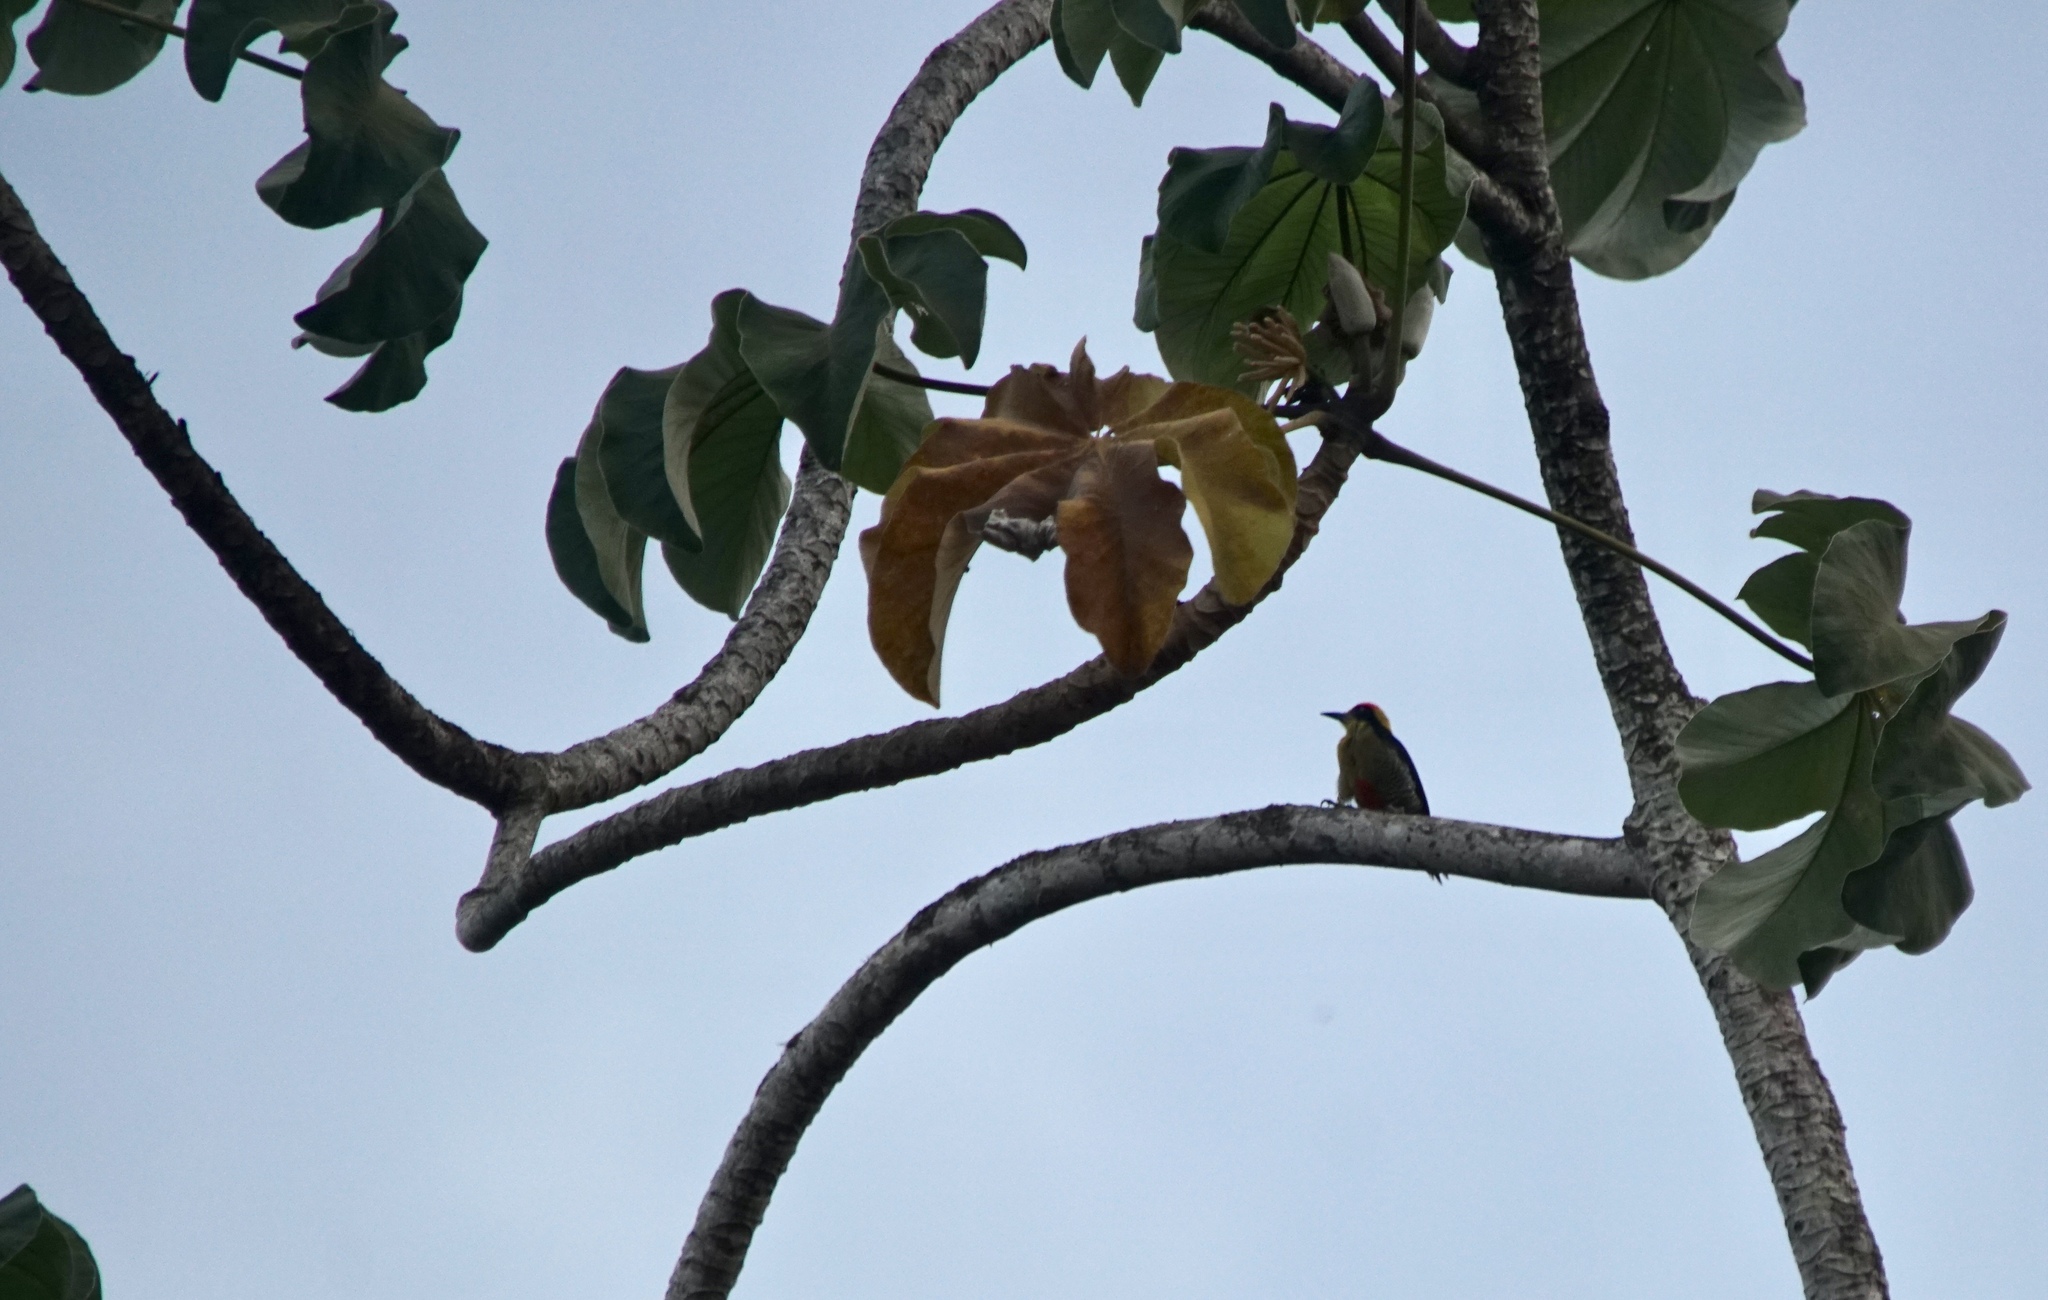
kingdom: Animalia
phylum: Chordata
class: Aves
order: Piciformes
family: Picidae
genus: Melanerpes
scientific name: Melanerpes chrysauchen
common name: Golden-naped woodpecker
